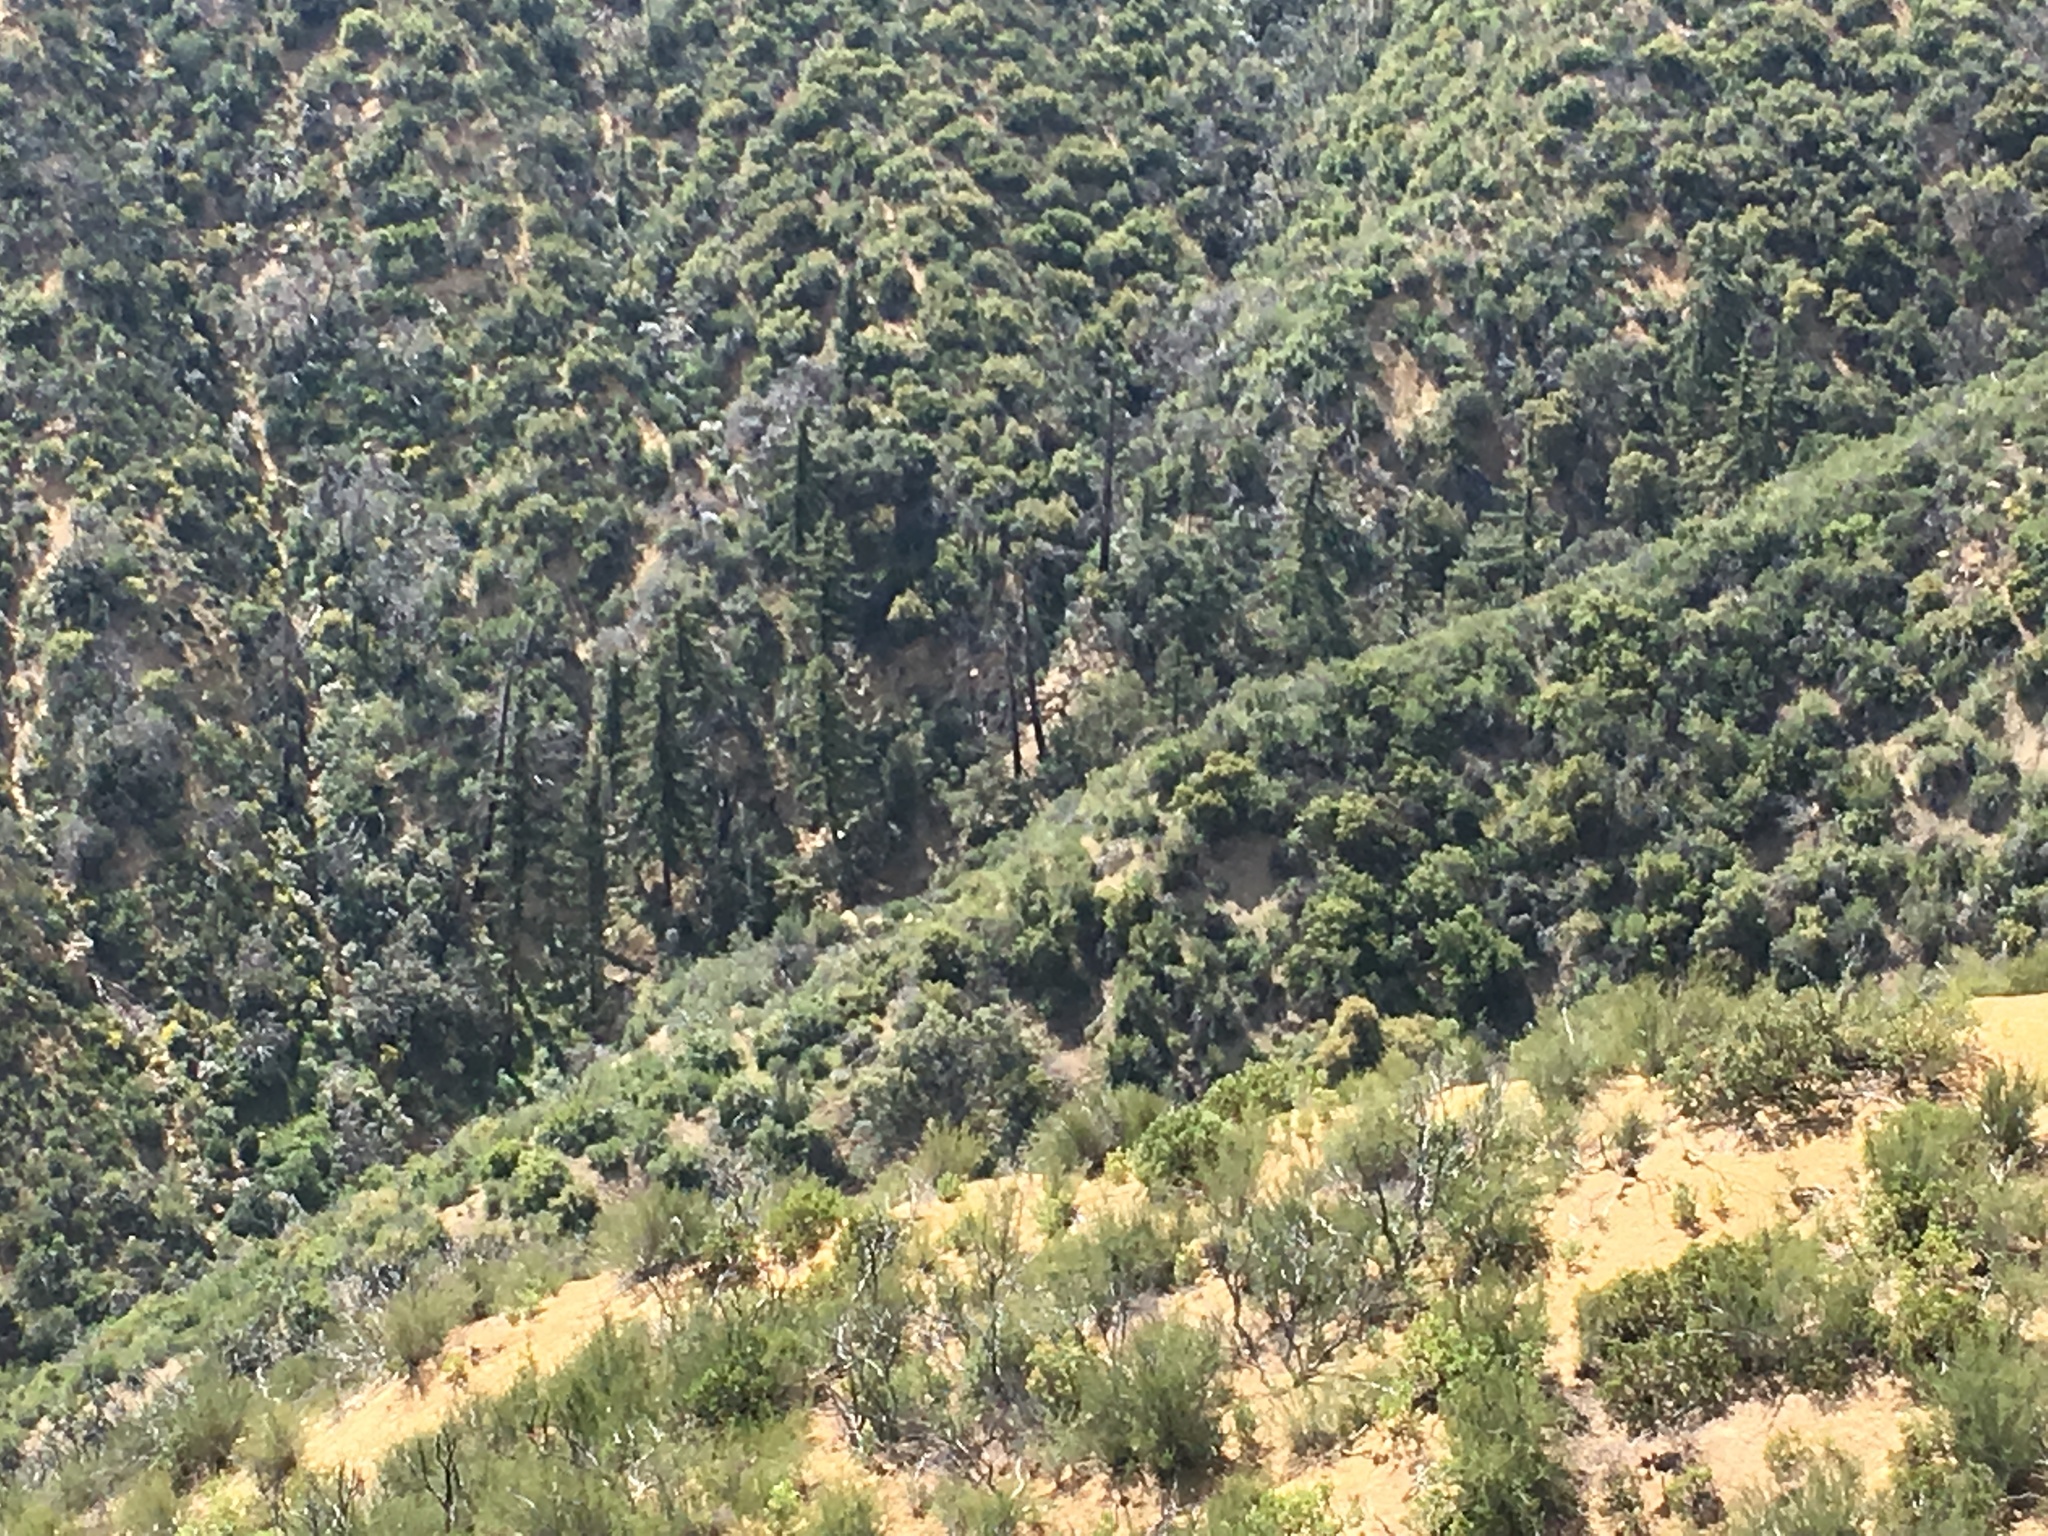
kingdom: Plantae
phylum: Tracheophyta
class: Pinopsida
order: Pinales
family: Pinaceae
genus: Pseudotsuga
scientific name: Pseudotsuga macrocarpa
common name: Big-cone douglas-fir
